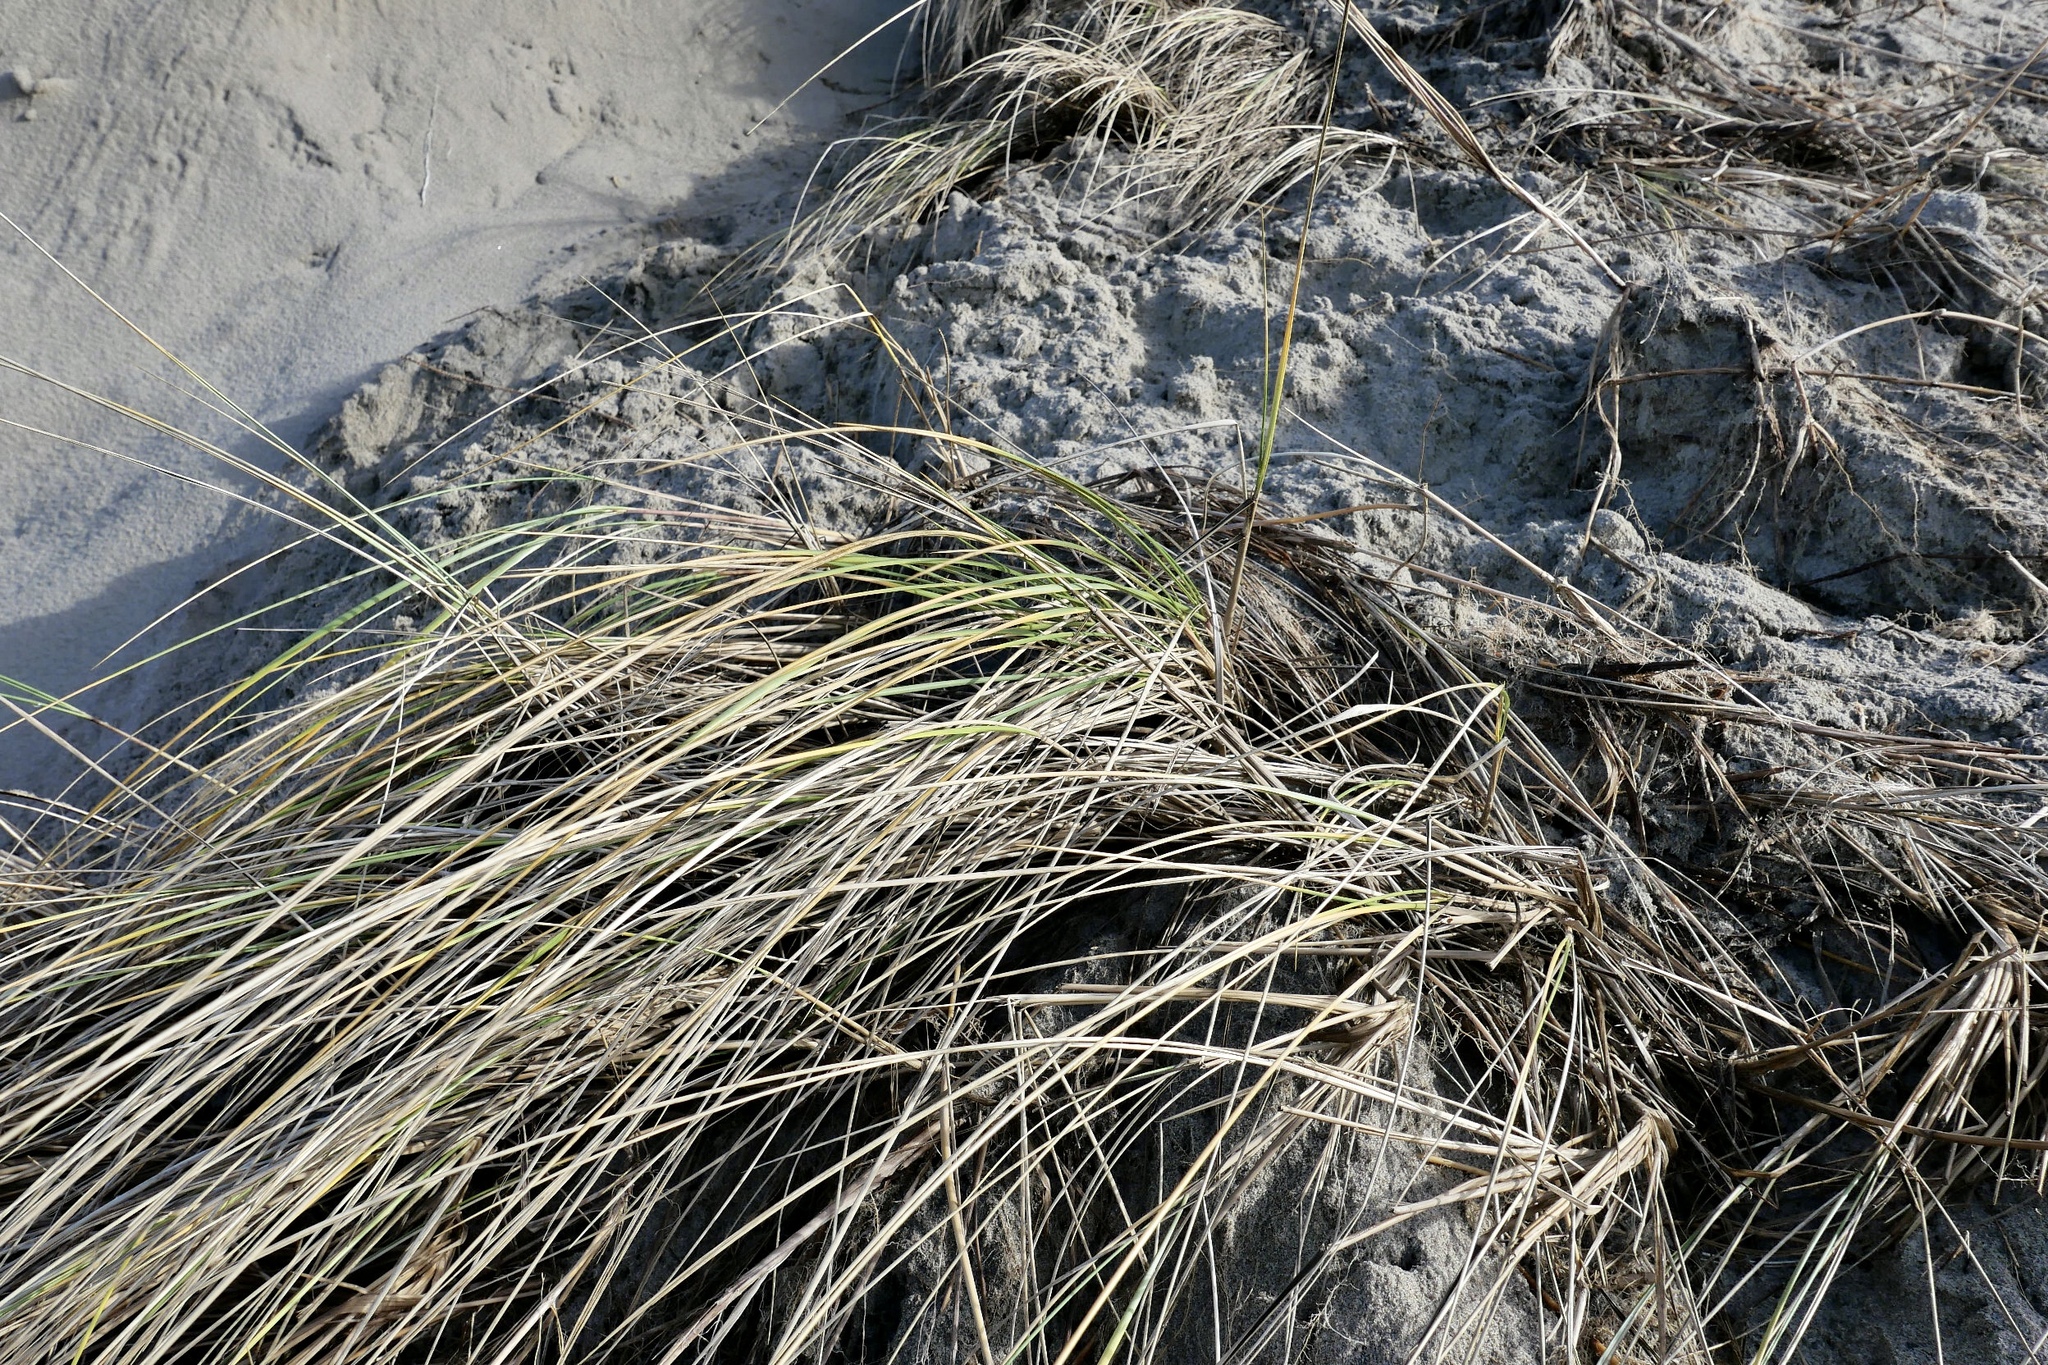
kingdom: Plantae
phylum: Tracheophyta
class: Liliopsida
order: Poales
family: Poaceae
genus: Calamagrostis
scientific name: Calamagrostis arenaria
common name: European beachgrass
